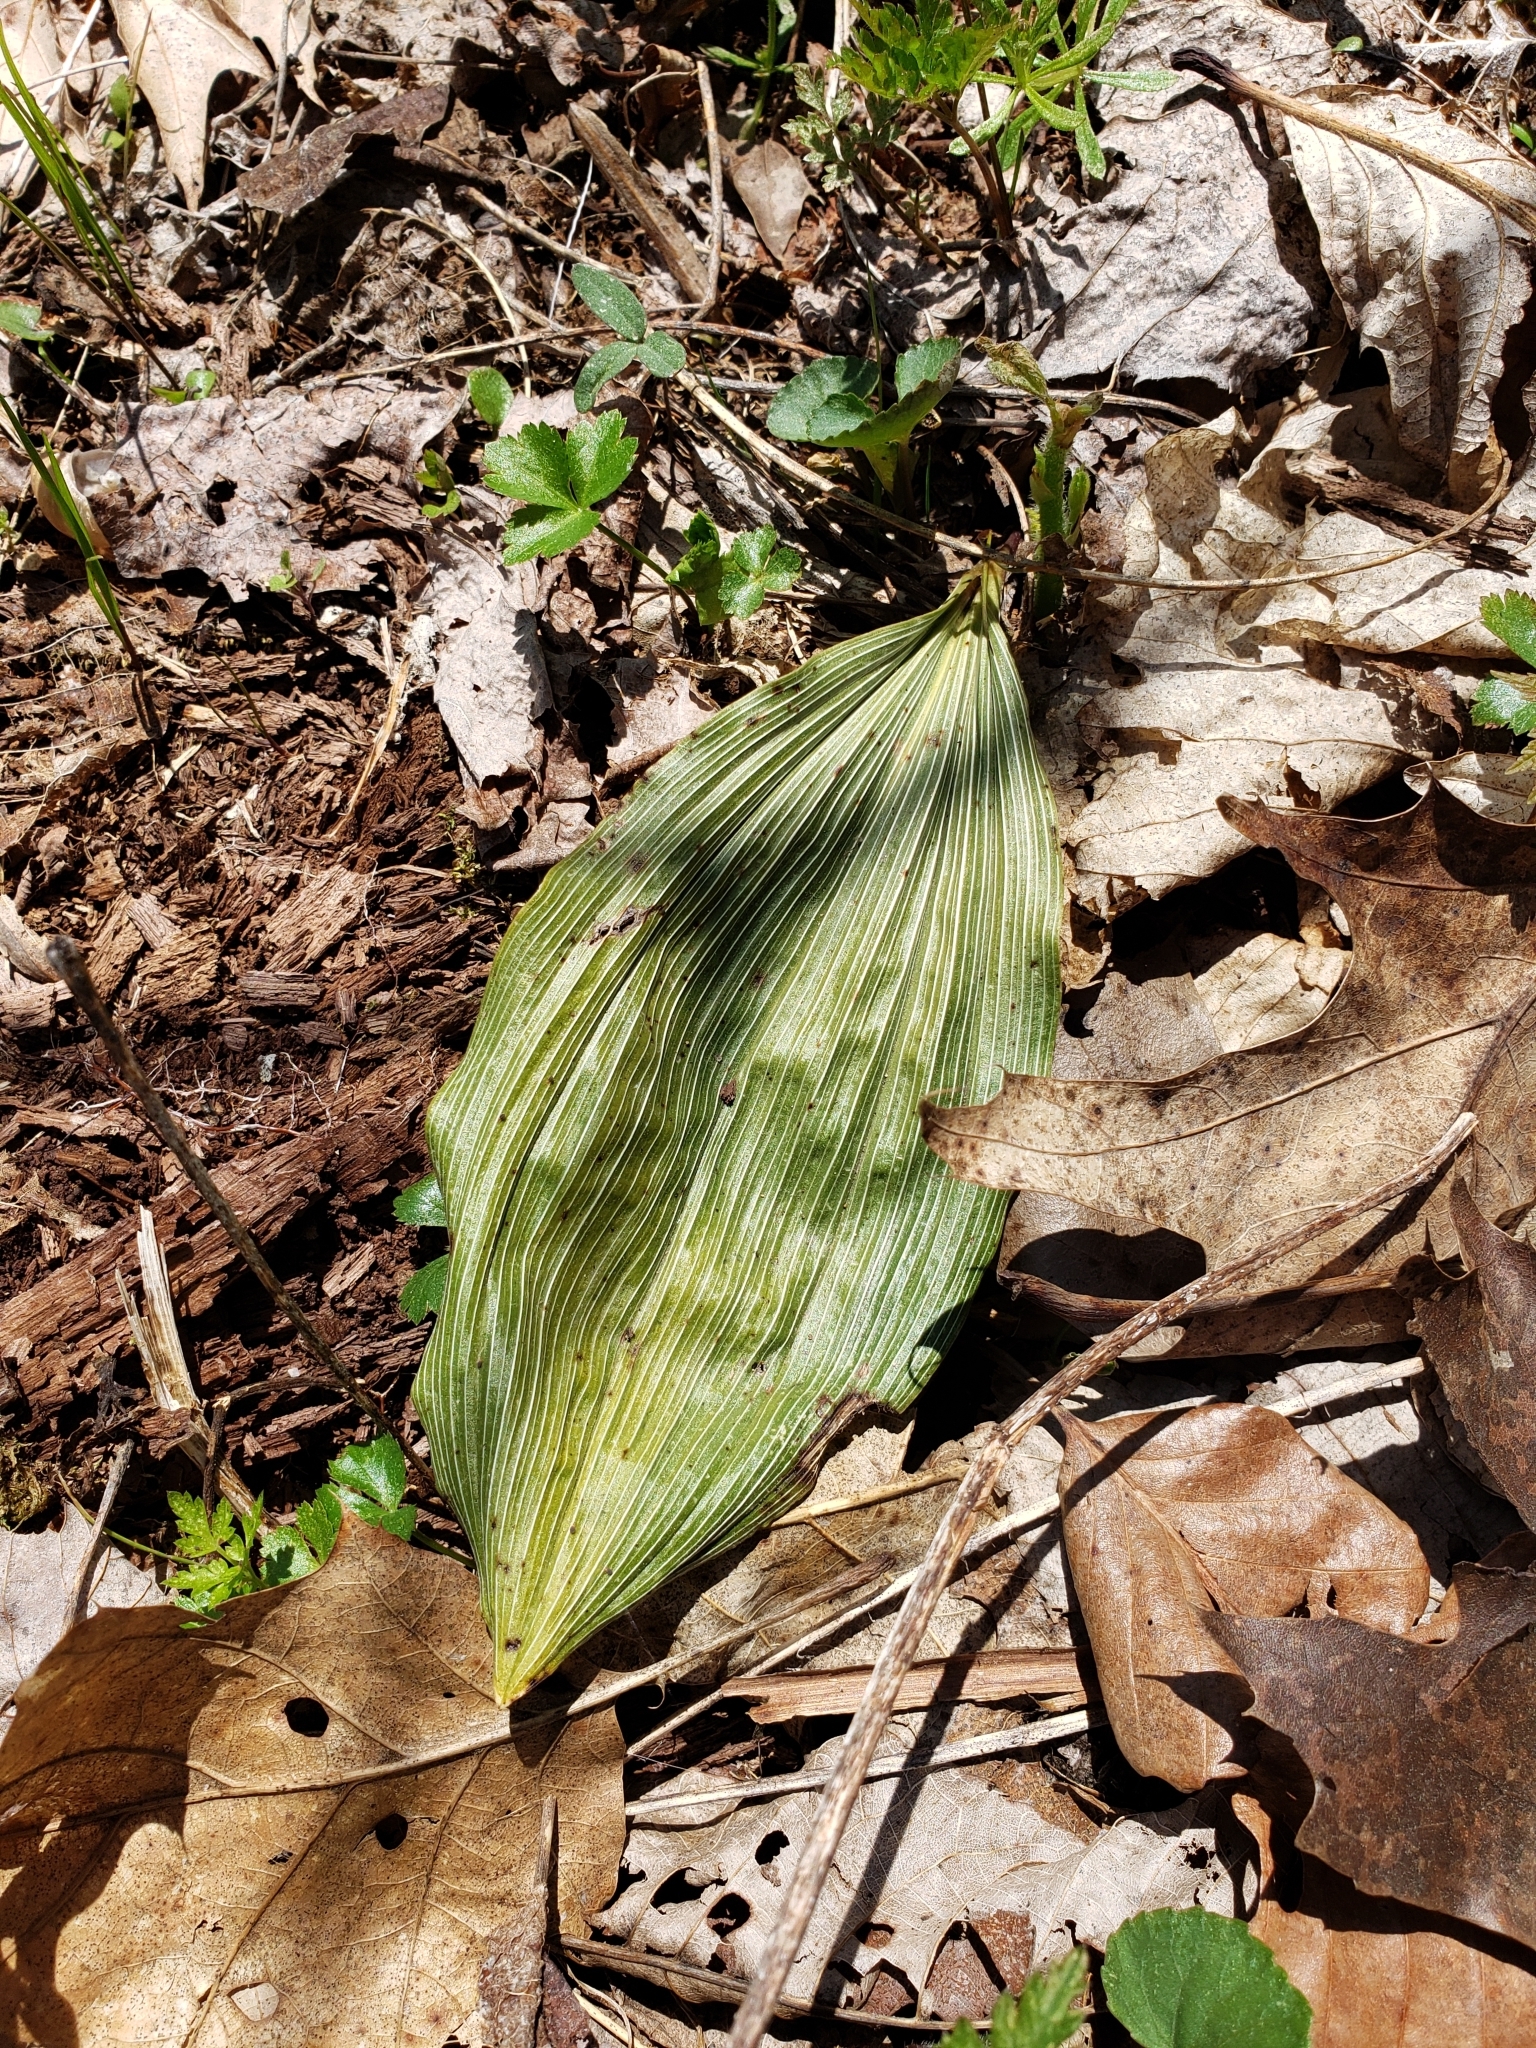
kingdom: Plantae
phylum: Tracheophyta
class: Liliopsida
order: Asparagales
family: Orchidaceae
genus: Aplectrum
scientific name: Aplectrum hyemale
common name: Adam-and-eve
